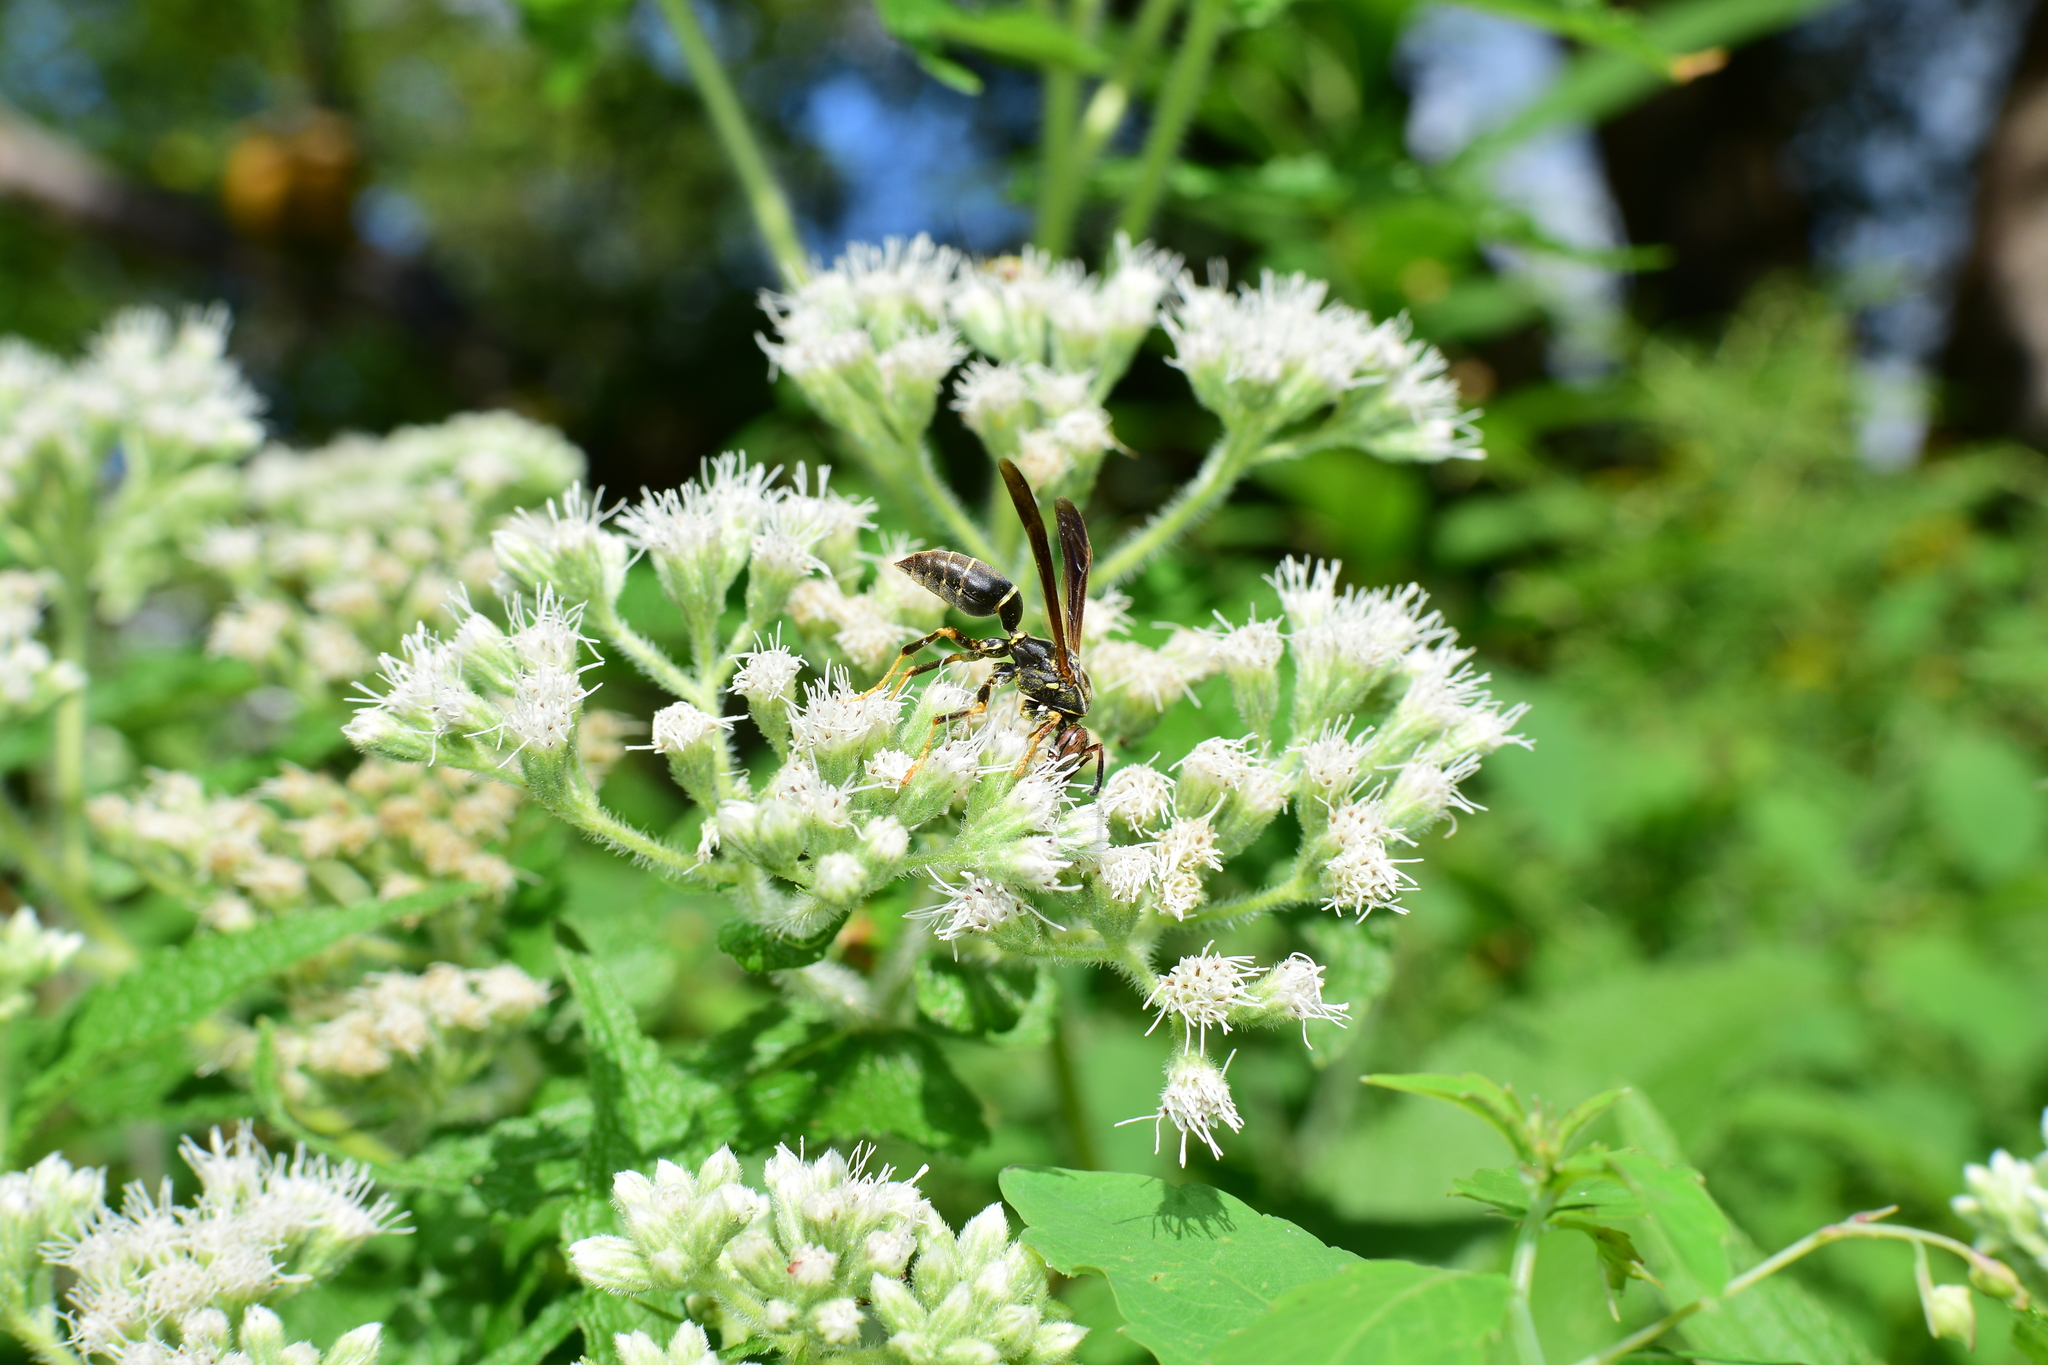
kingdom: Animalia
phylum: Arthropoda
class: Insecta
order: Hymenoptera
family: Eumenidae
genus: Polistes
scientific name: Polistes fuscatus
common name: Dark paper wasp
